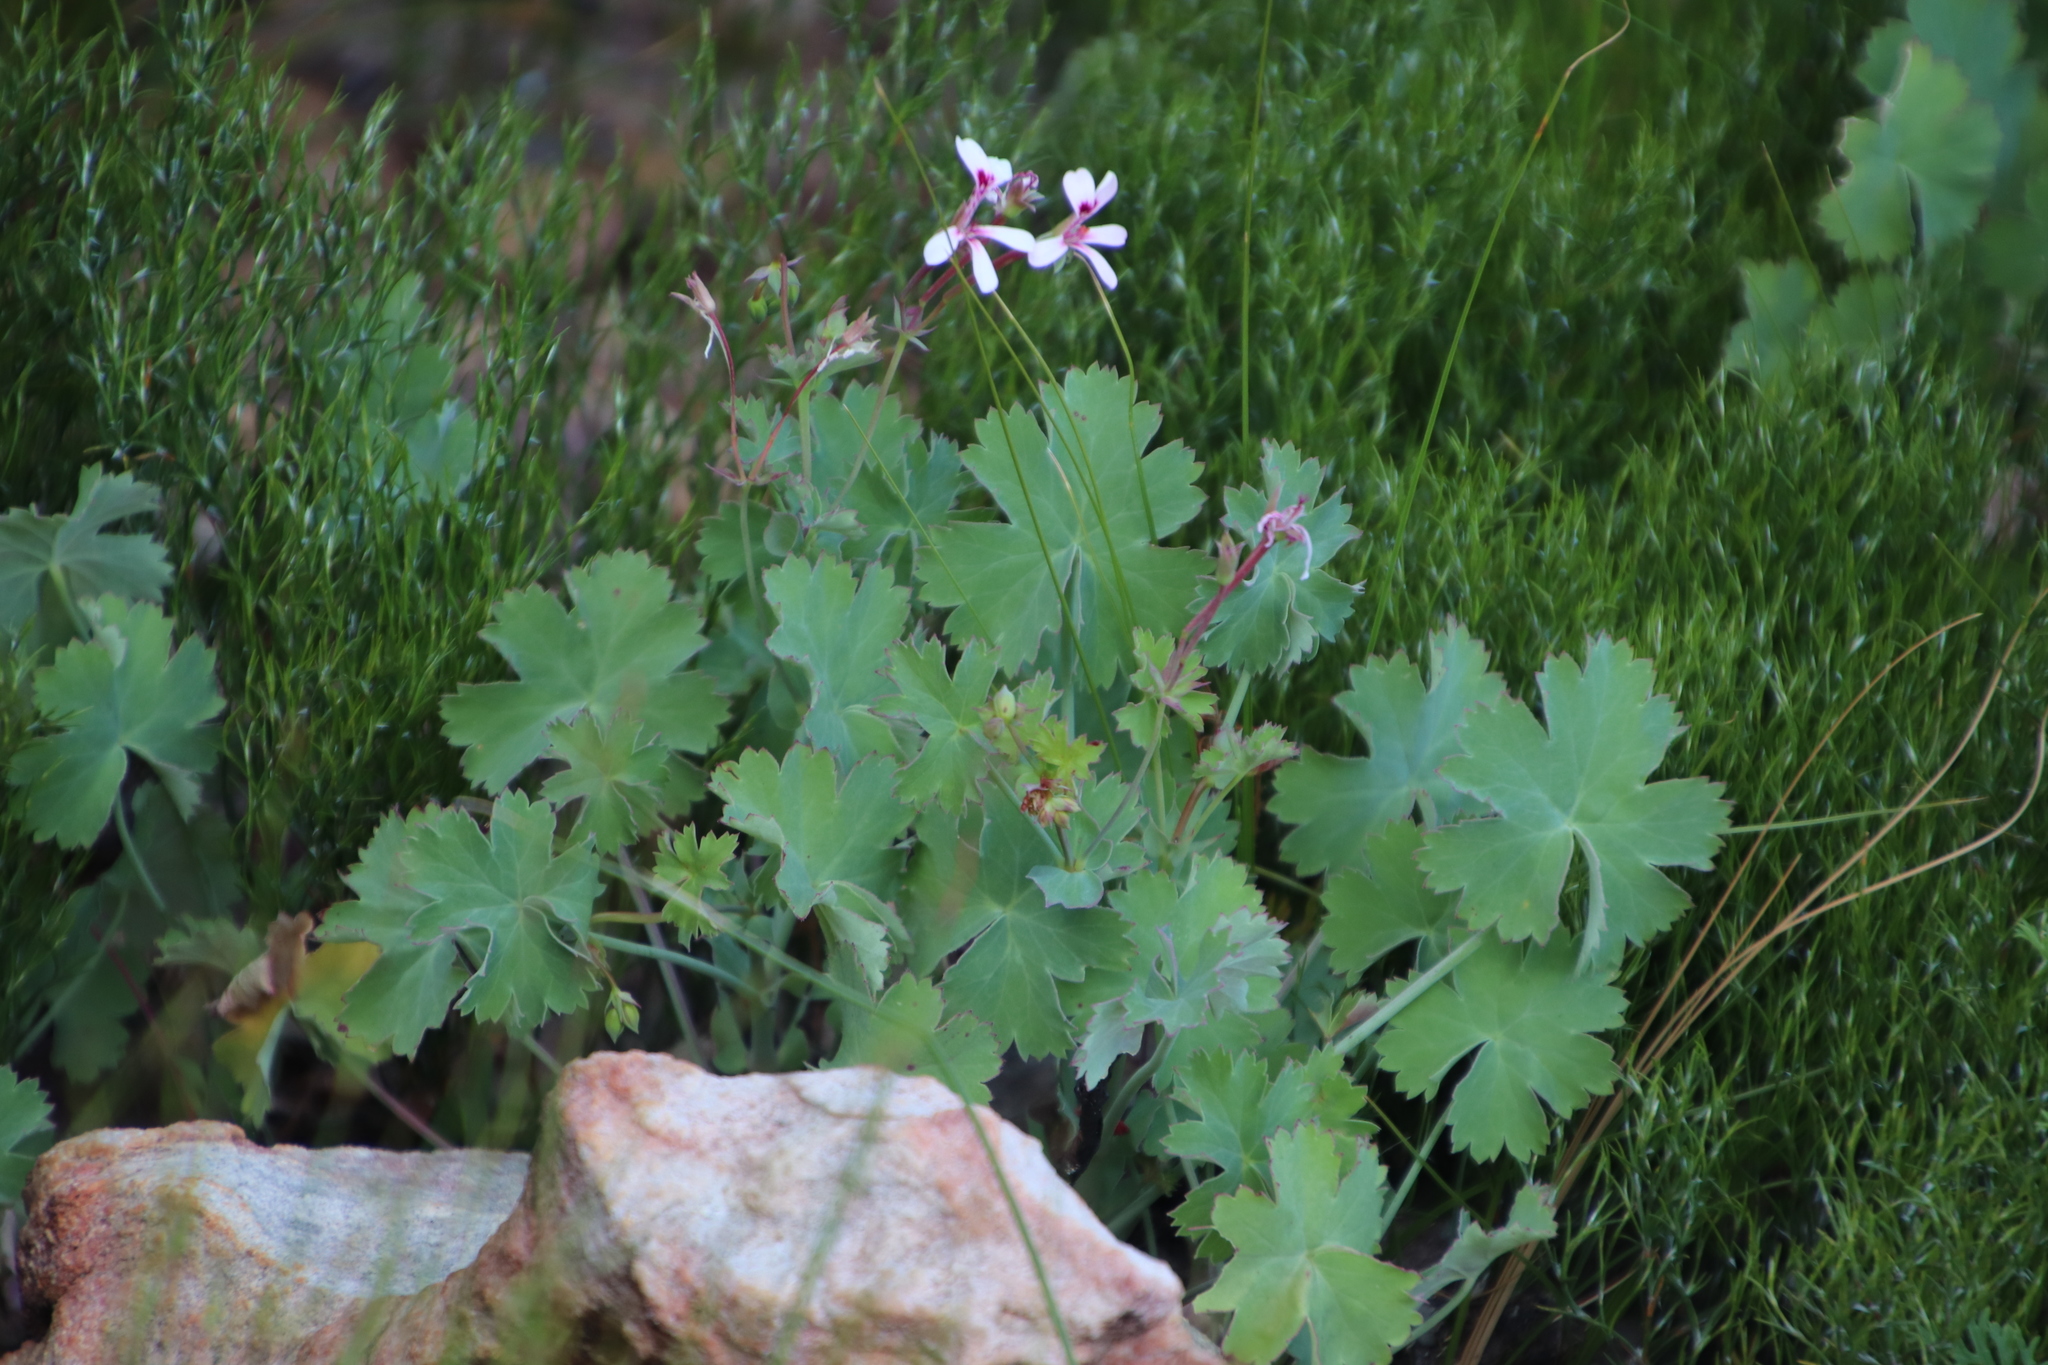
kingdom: Plantae
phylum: Tracheophyta
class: Magnoliopsida
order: Geraniales
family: Geraniaceae
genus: Pelargonium
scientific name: Pelargonium patulum
